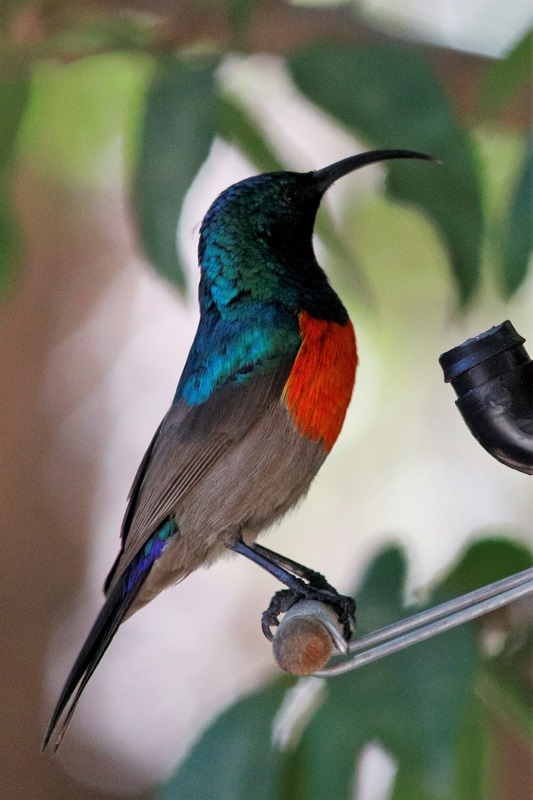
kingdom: Animalia
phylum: Chordata
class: Aves
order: Passeriformes
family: Nectariniidae
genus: Cinnyris
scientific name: Cinnyris afer
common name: Greater double-collared sunbird
